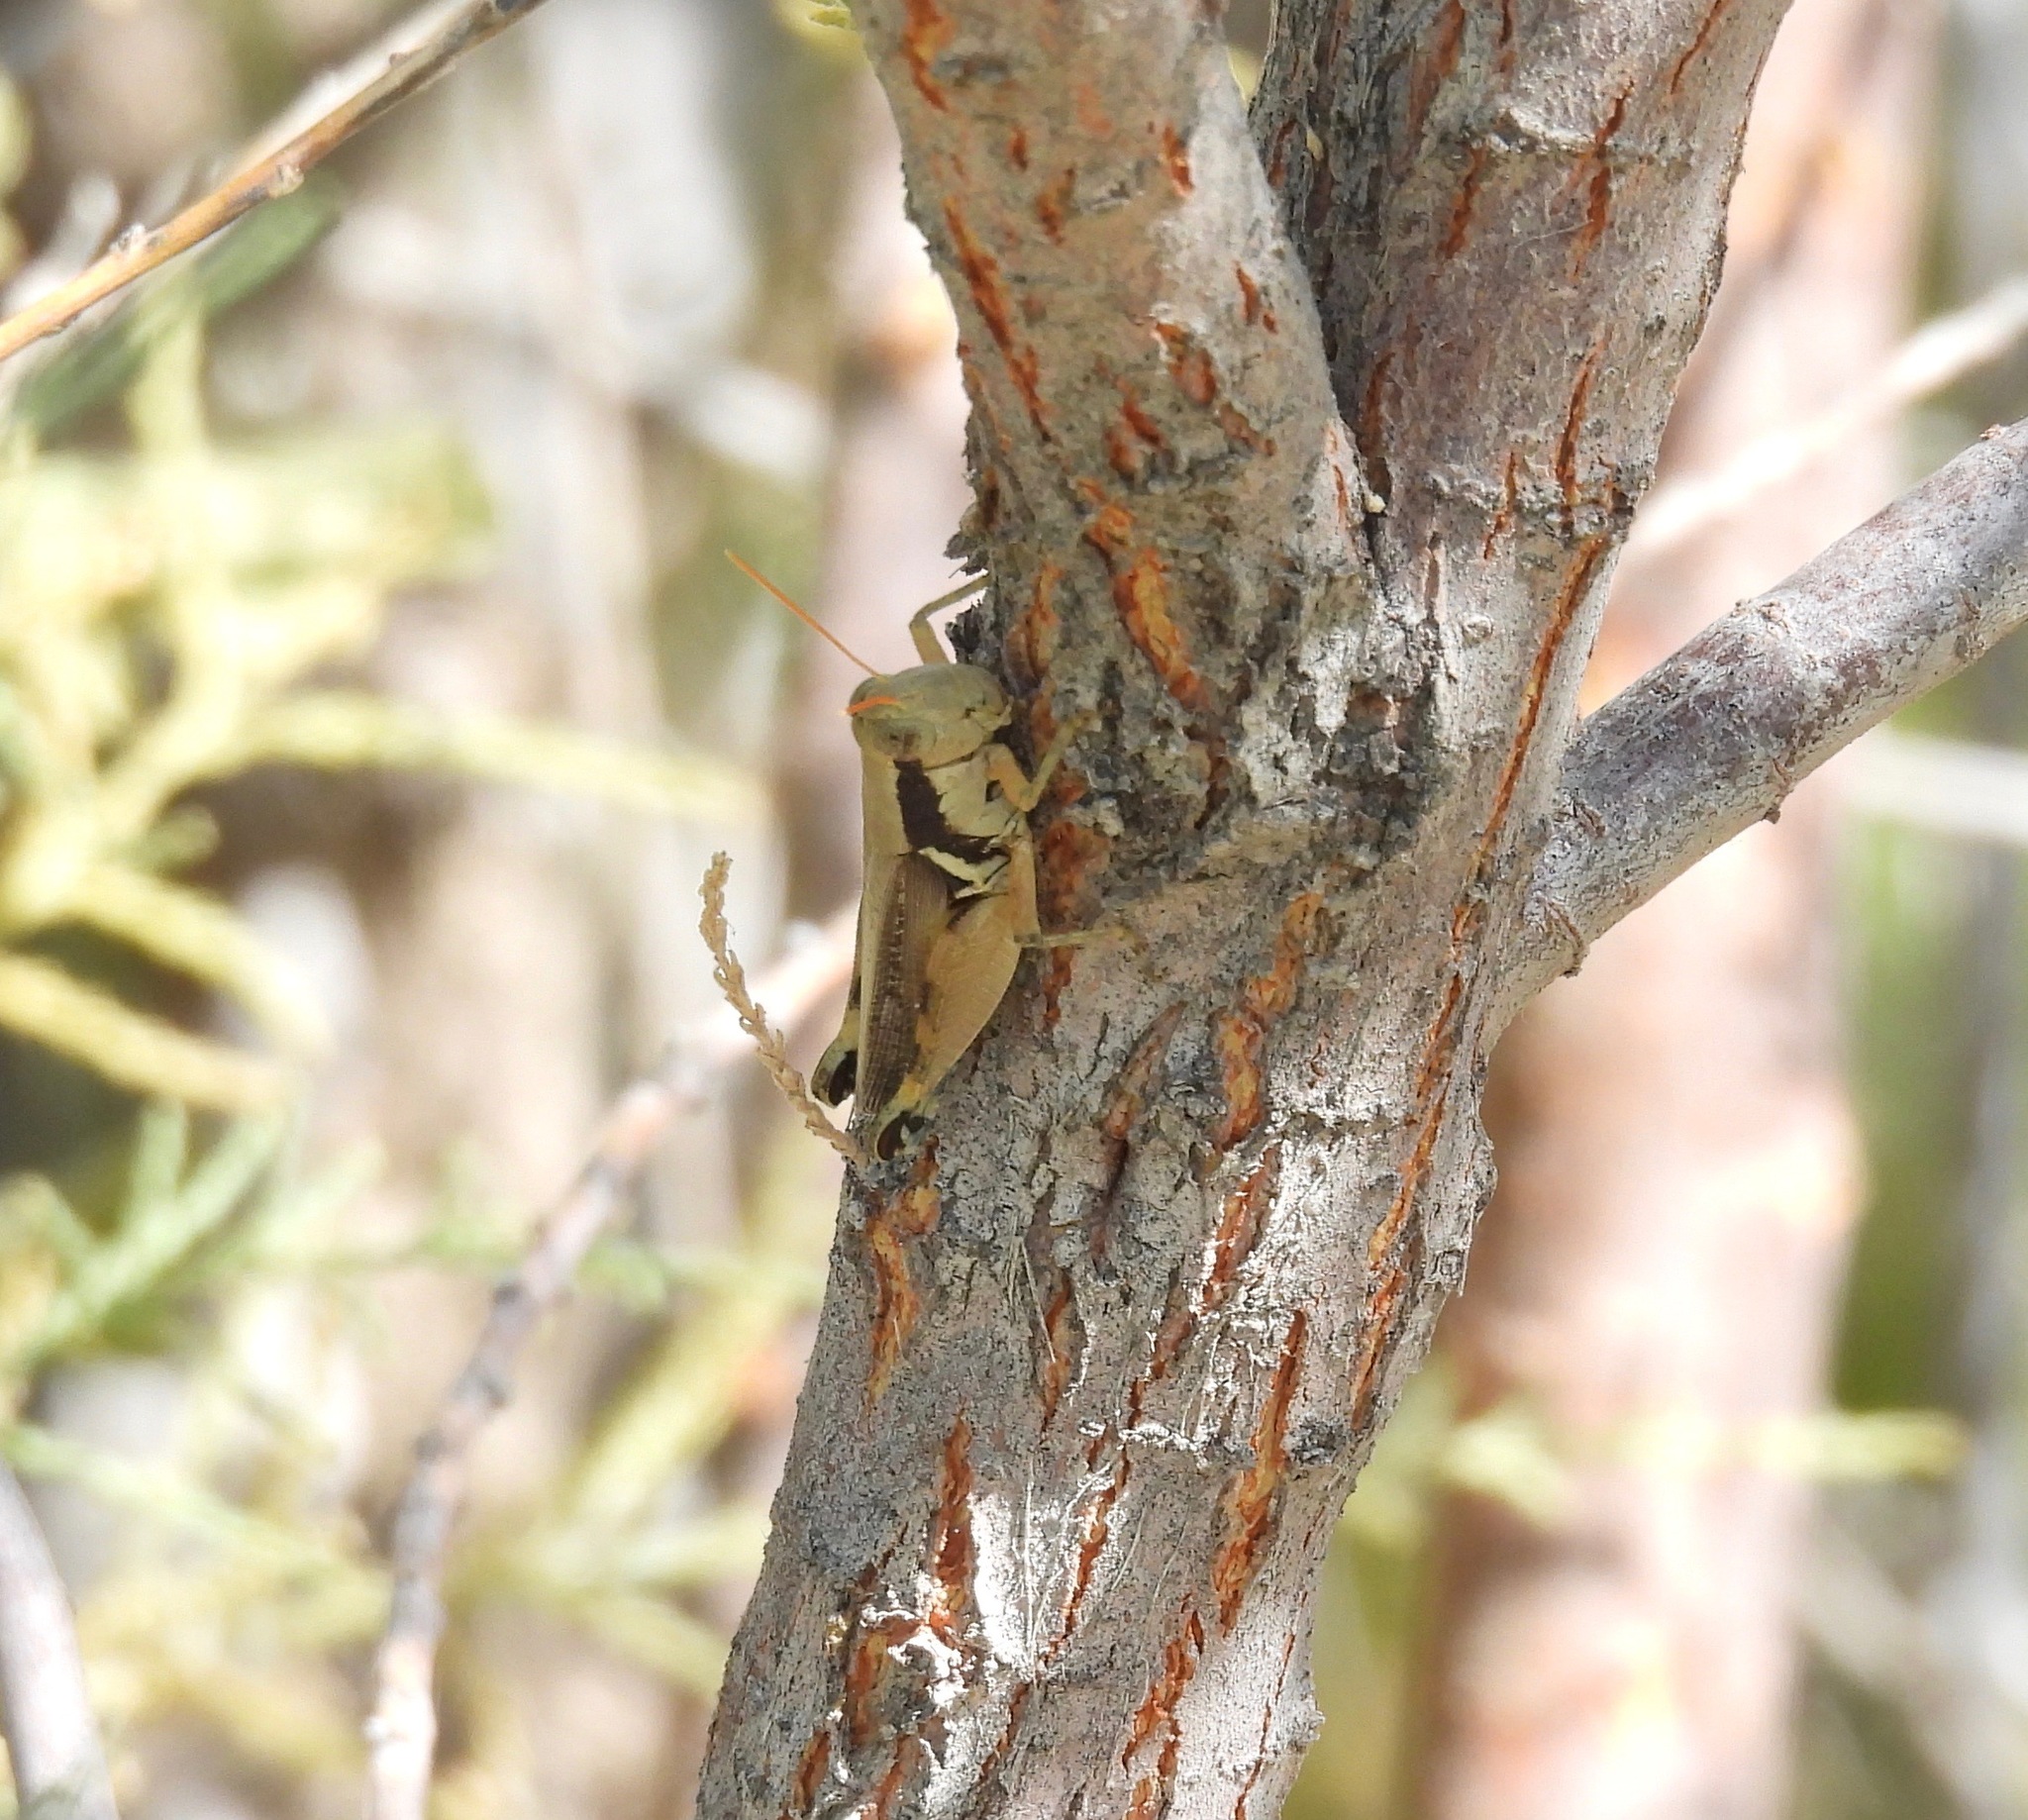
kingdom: Animalia
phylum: Arthropoda
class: Insecta
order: Orthoptera
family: Acrididae
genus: Melanoplus
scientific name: Melanoplus glaucipes
